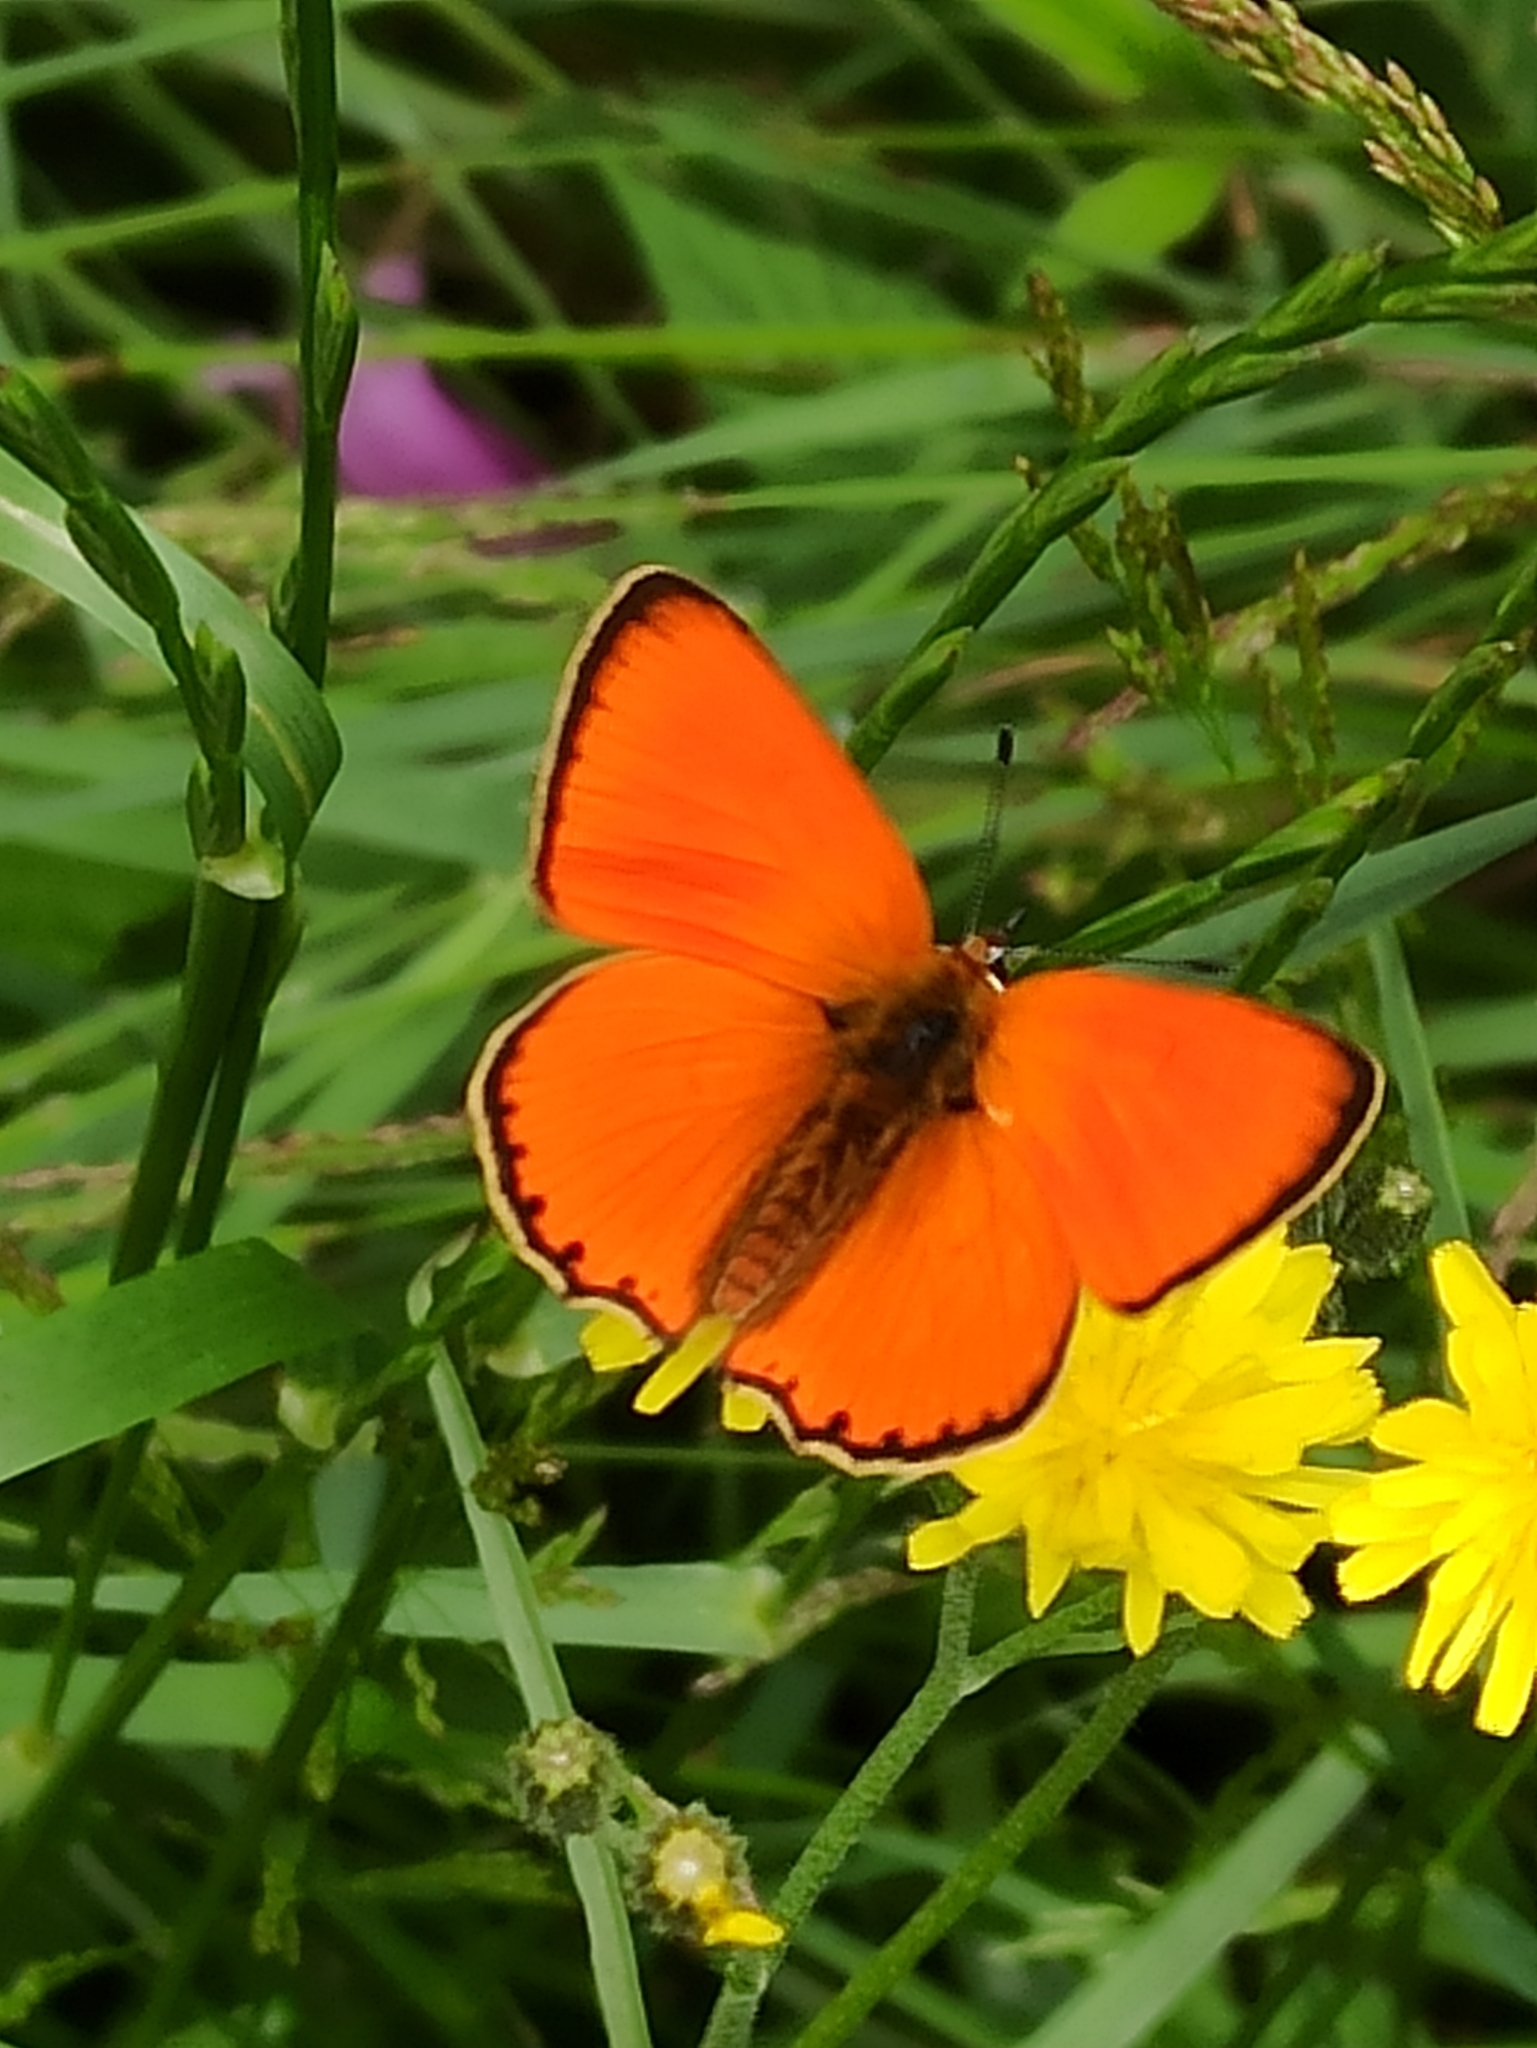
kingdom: Animalia
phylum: Arthropoda
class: Insecta
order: Lepidoptera
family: Lycaenidae
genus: Lycaena
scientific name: Lycaena virgaureae
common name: Scarce copper
